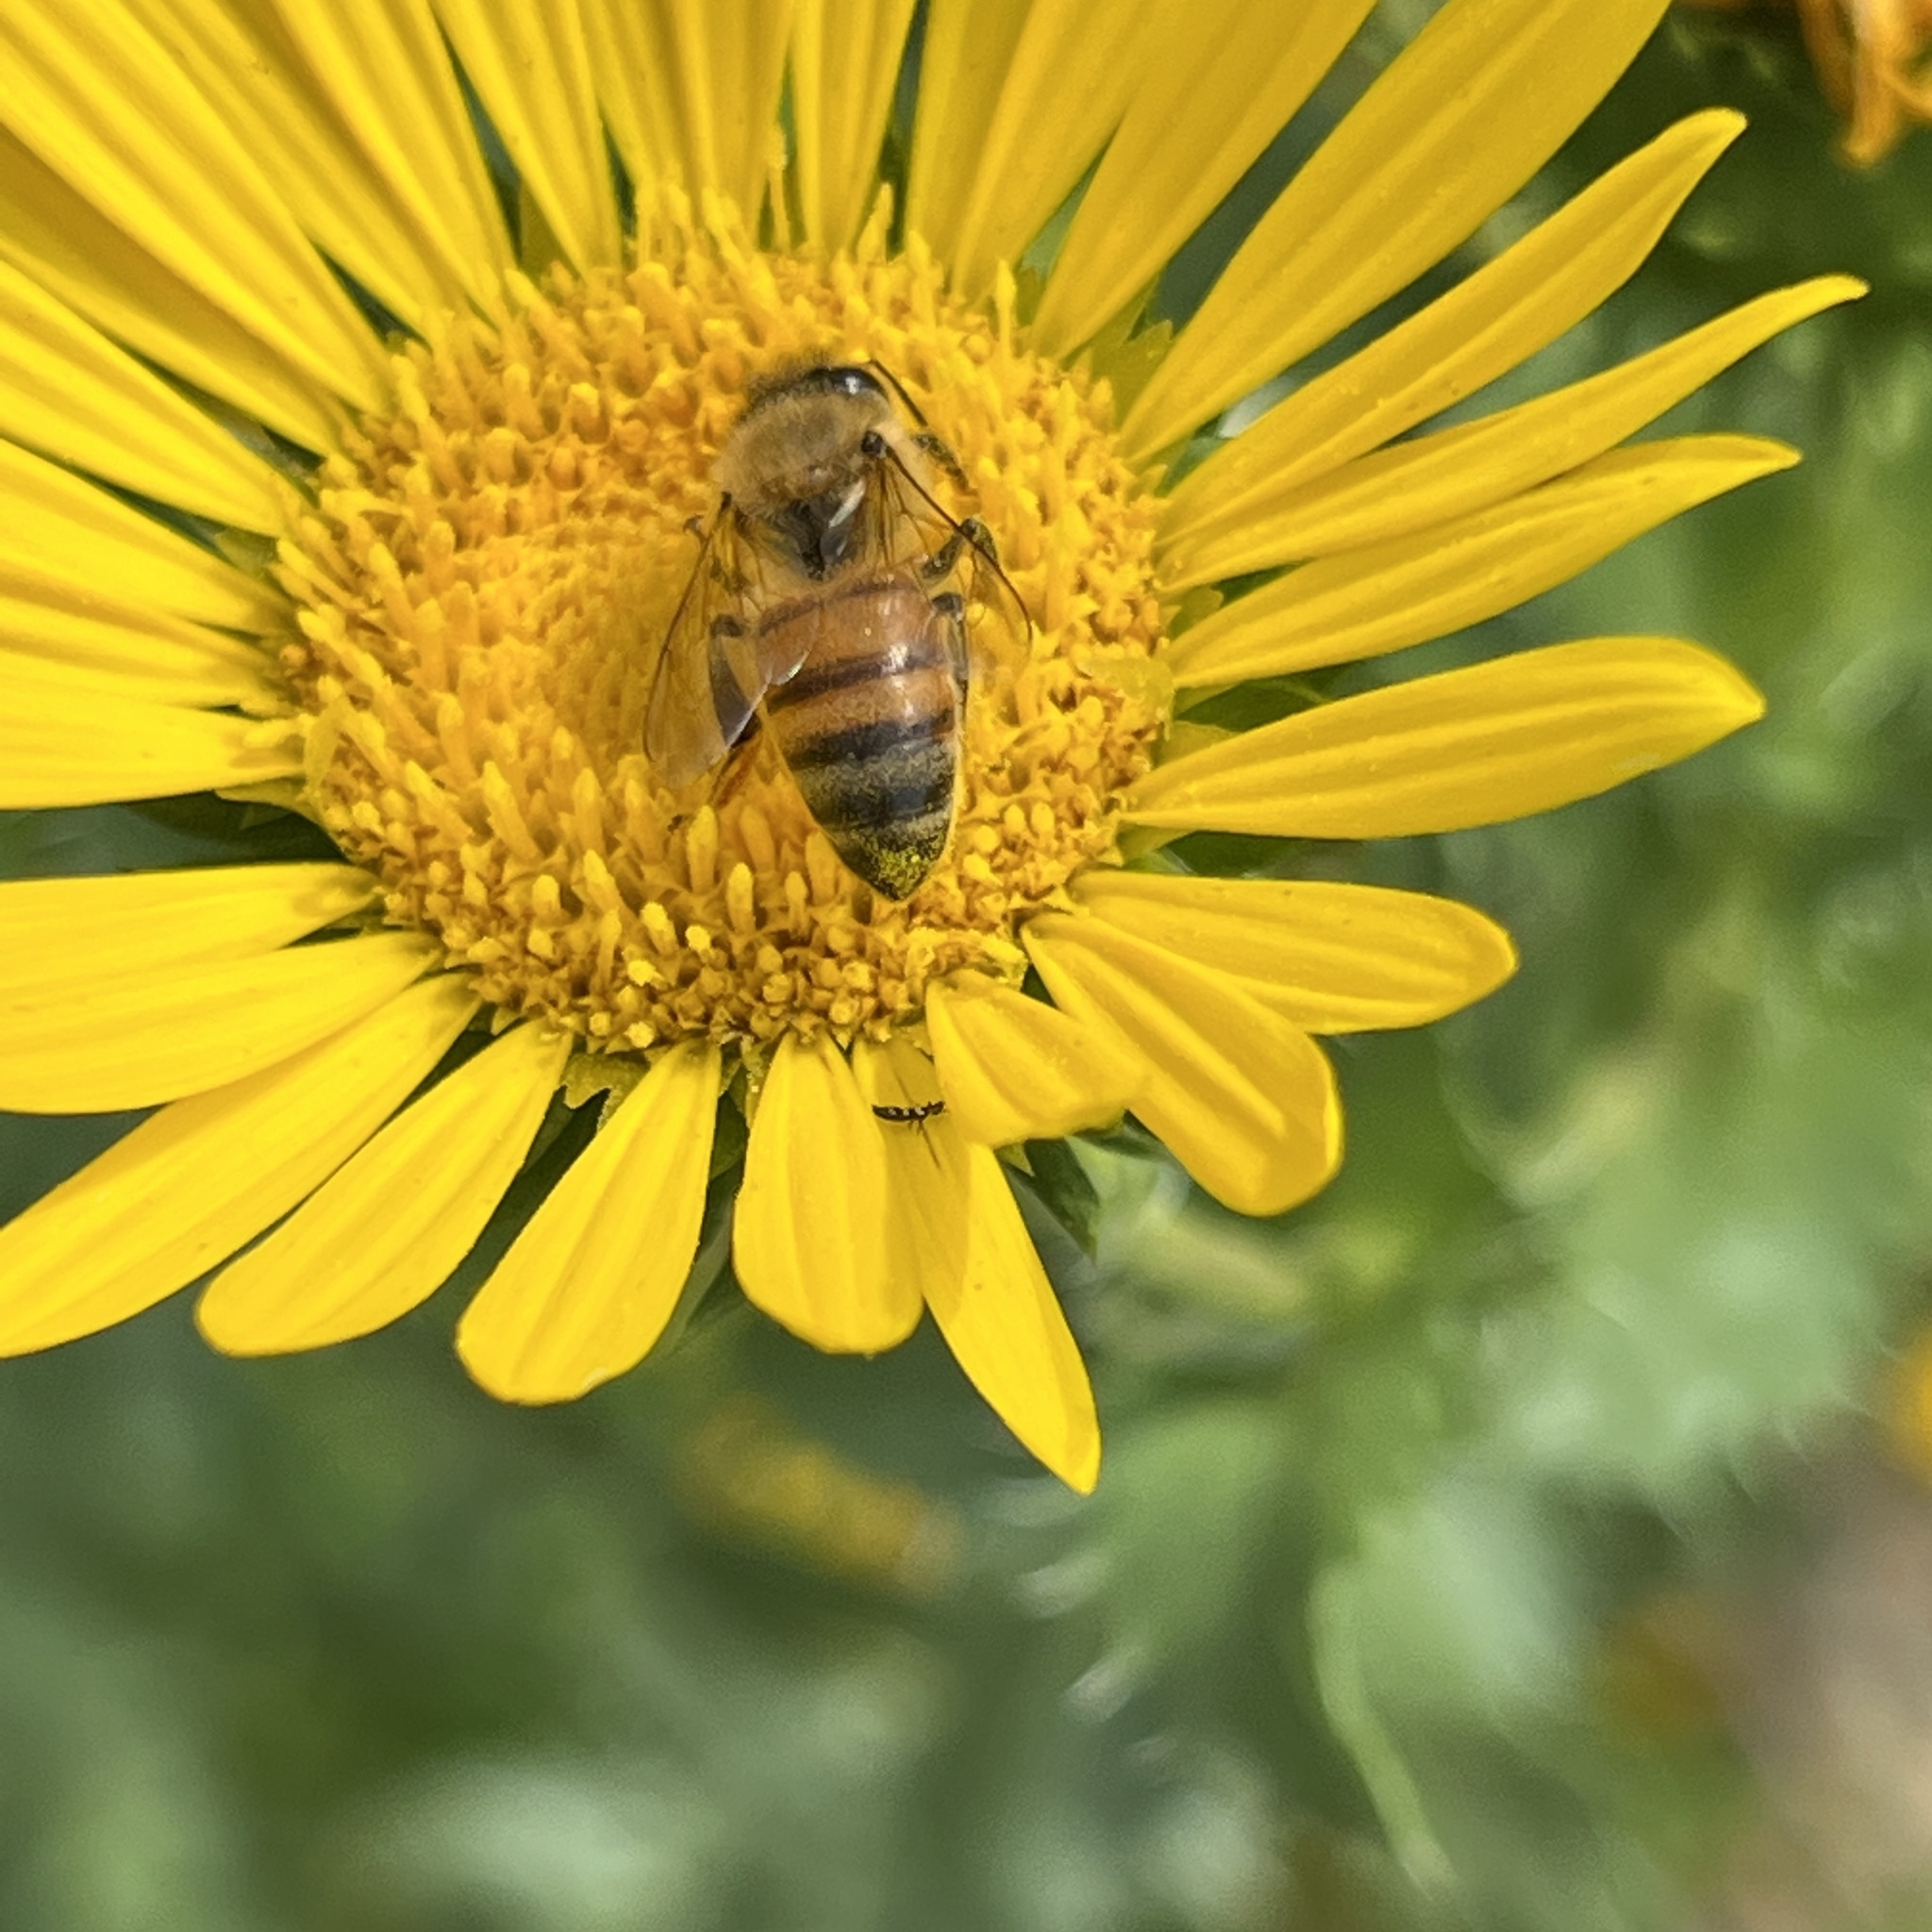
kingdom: Animalia
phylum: Arthropoda
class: Insecta
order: Hymenoptera
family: Apidae
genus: Apis
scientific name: Apis mellifera
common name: Honey bee
